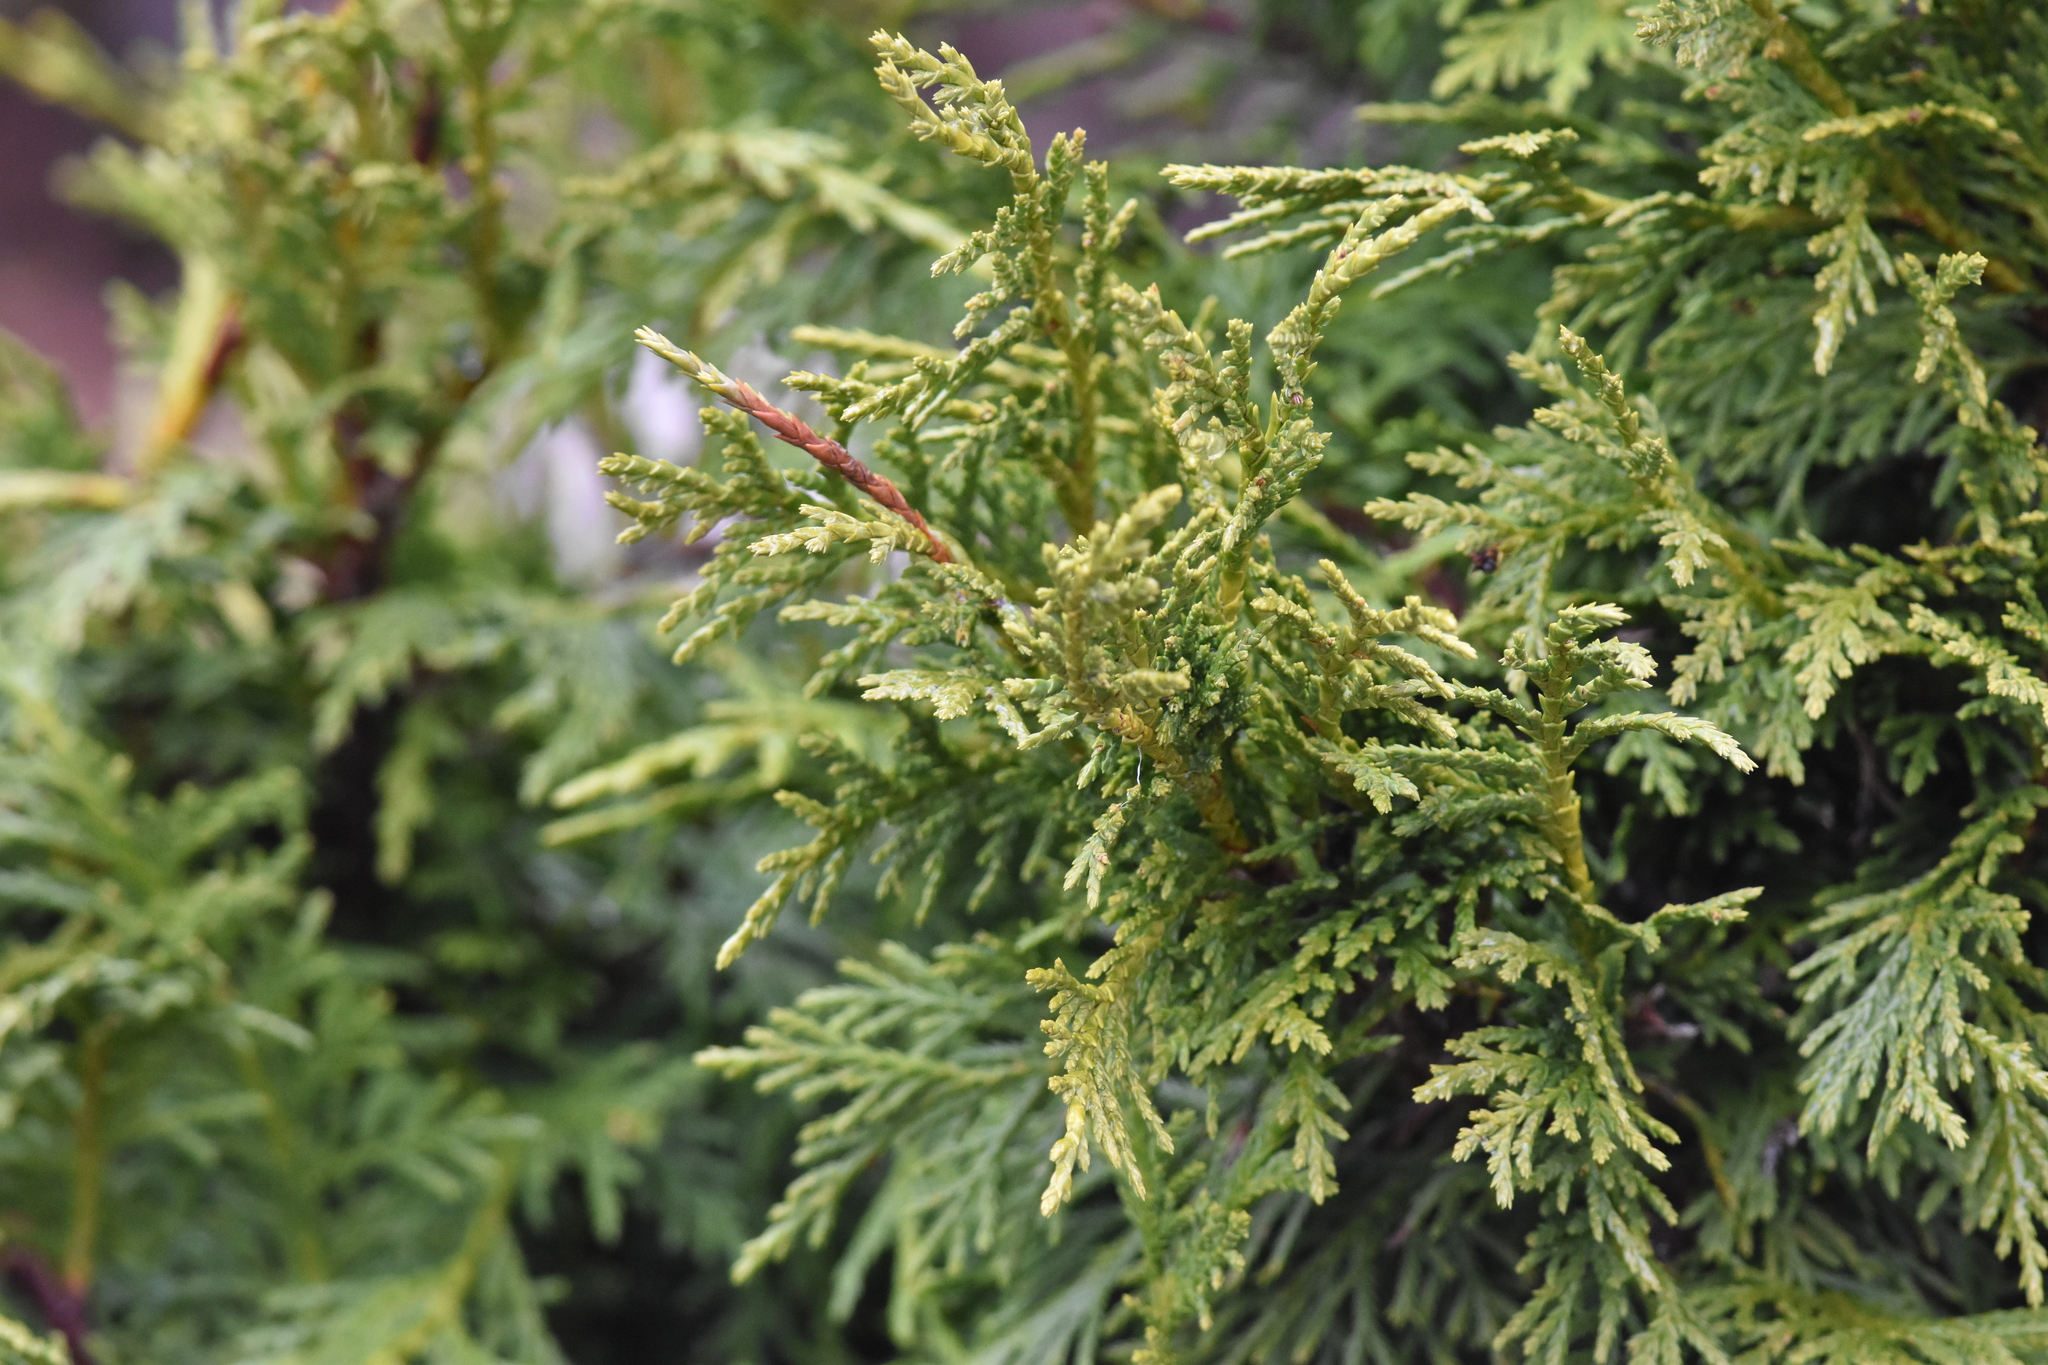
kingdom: Plantae
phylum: Tracheophyta
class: Pinopsida
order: Pinales
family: Cupressaceae
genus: Xanthocyparis
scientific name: Xanthocyparis nootkatensis
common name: Nootka cypress
